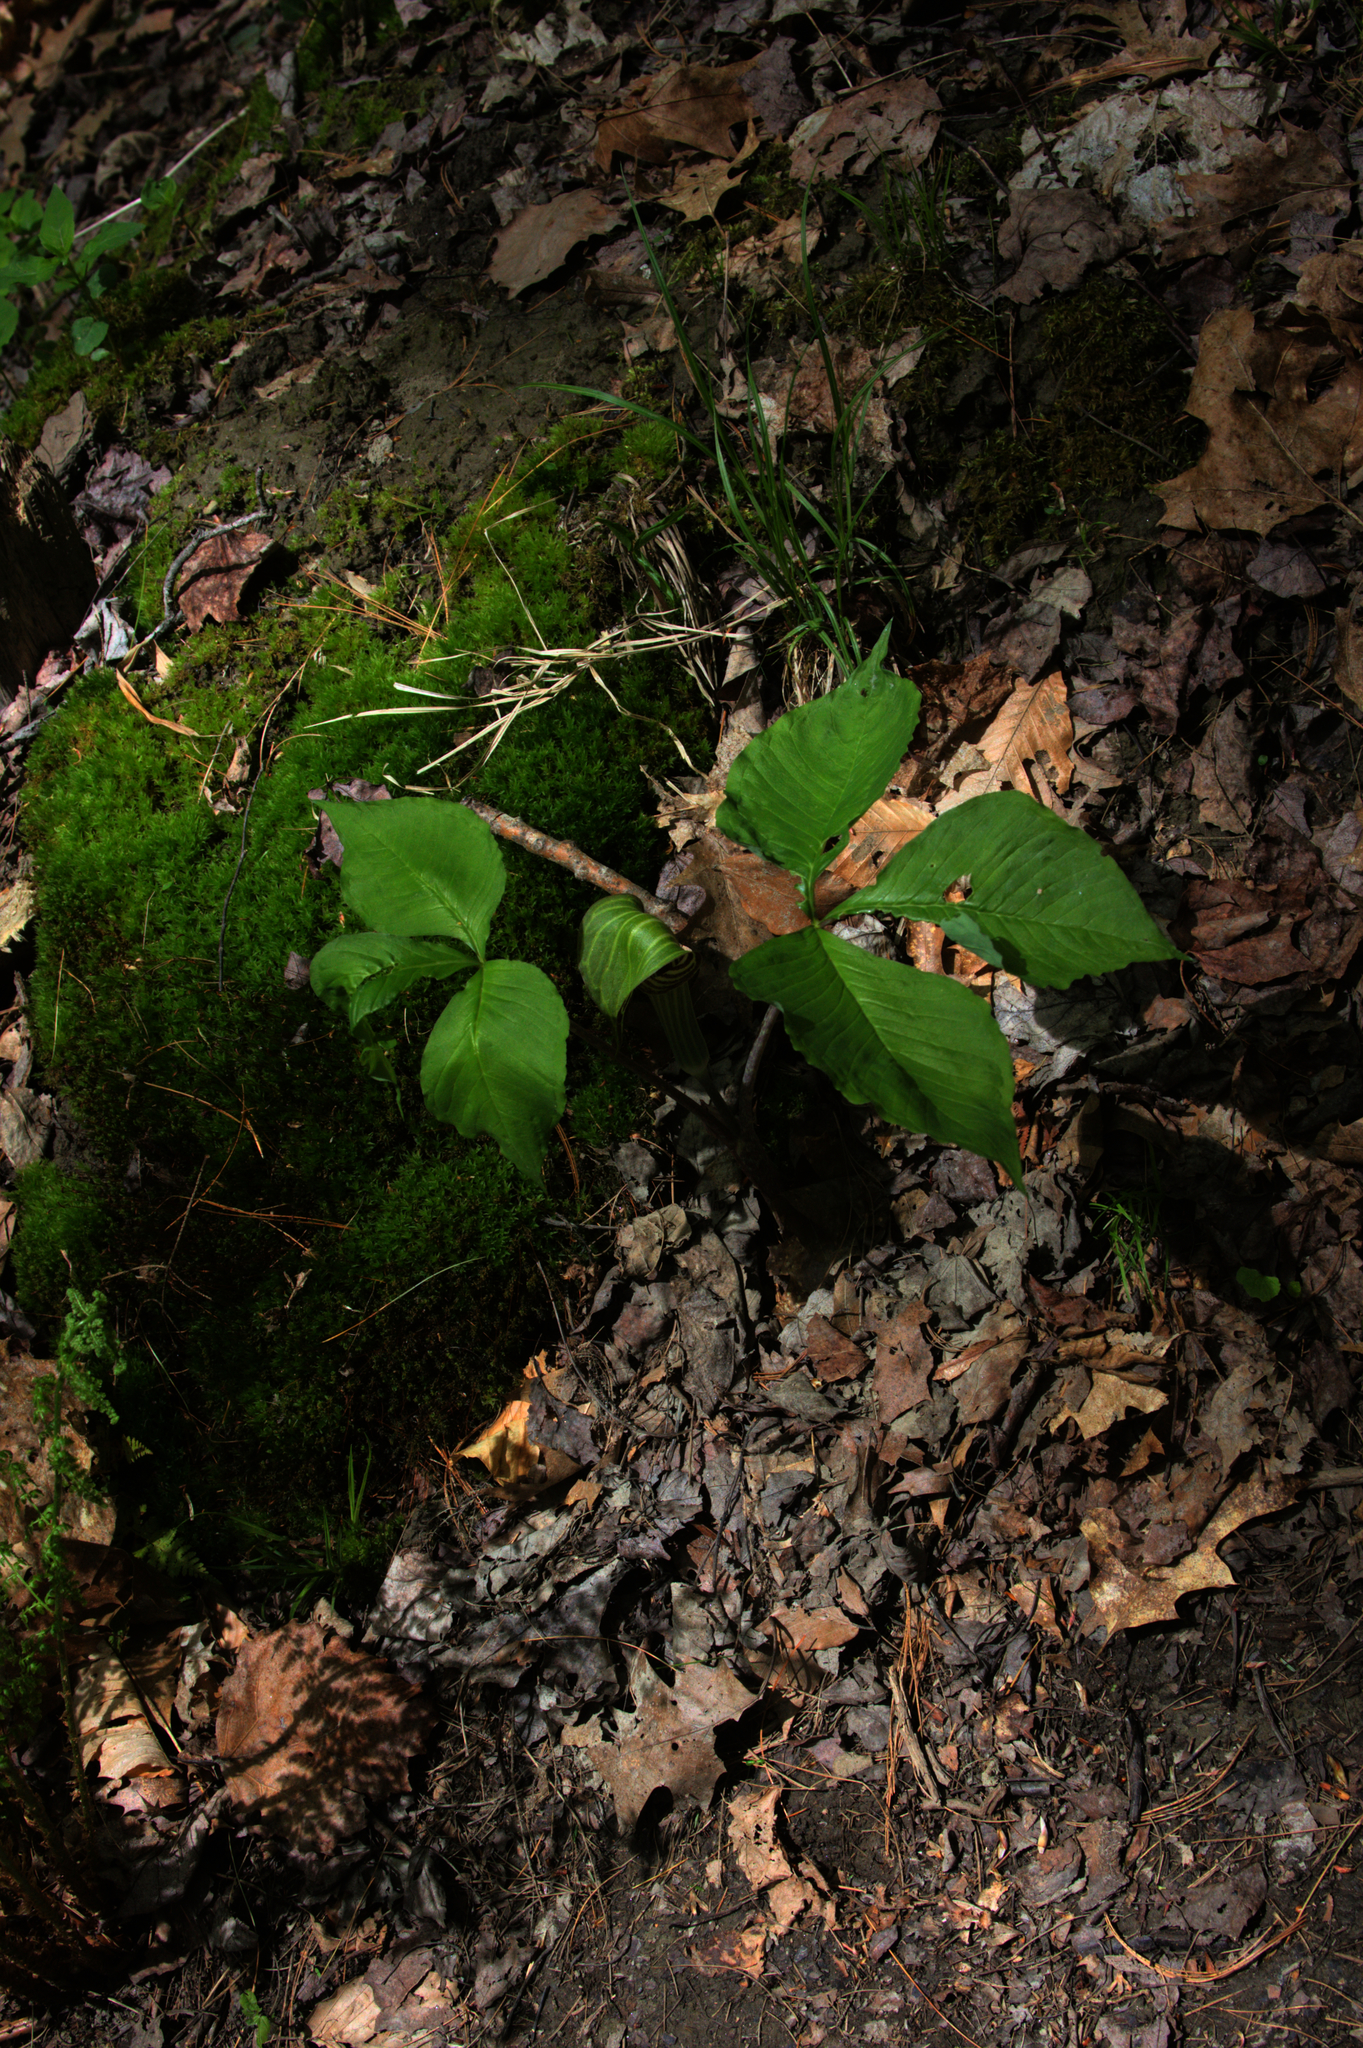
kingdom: Plantae
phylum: Tracheophyta
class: Liliopsida
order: Alismatales
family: Araceae
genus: Arisaema
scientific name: Arisaema triphyllum
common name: Jack-in-the-pulpit
